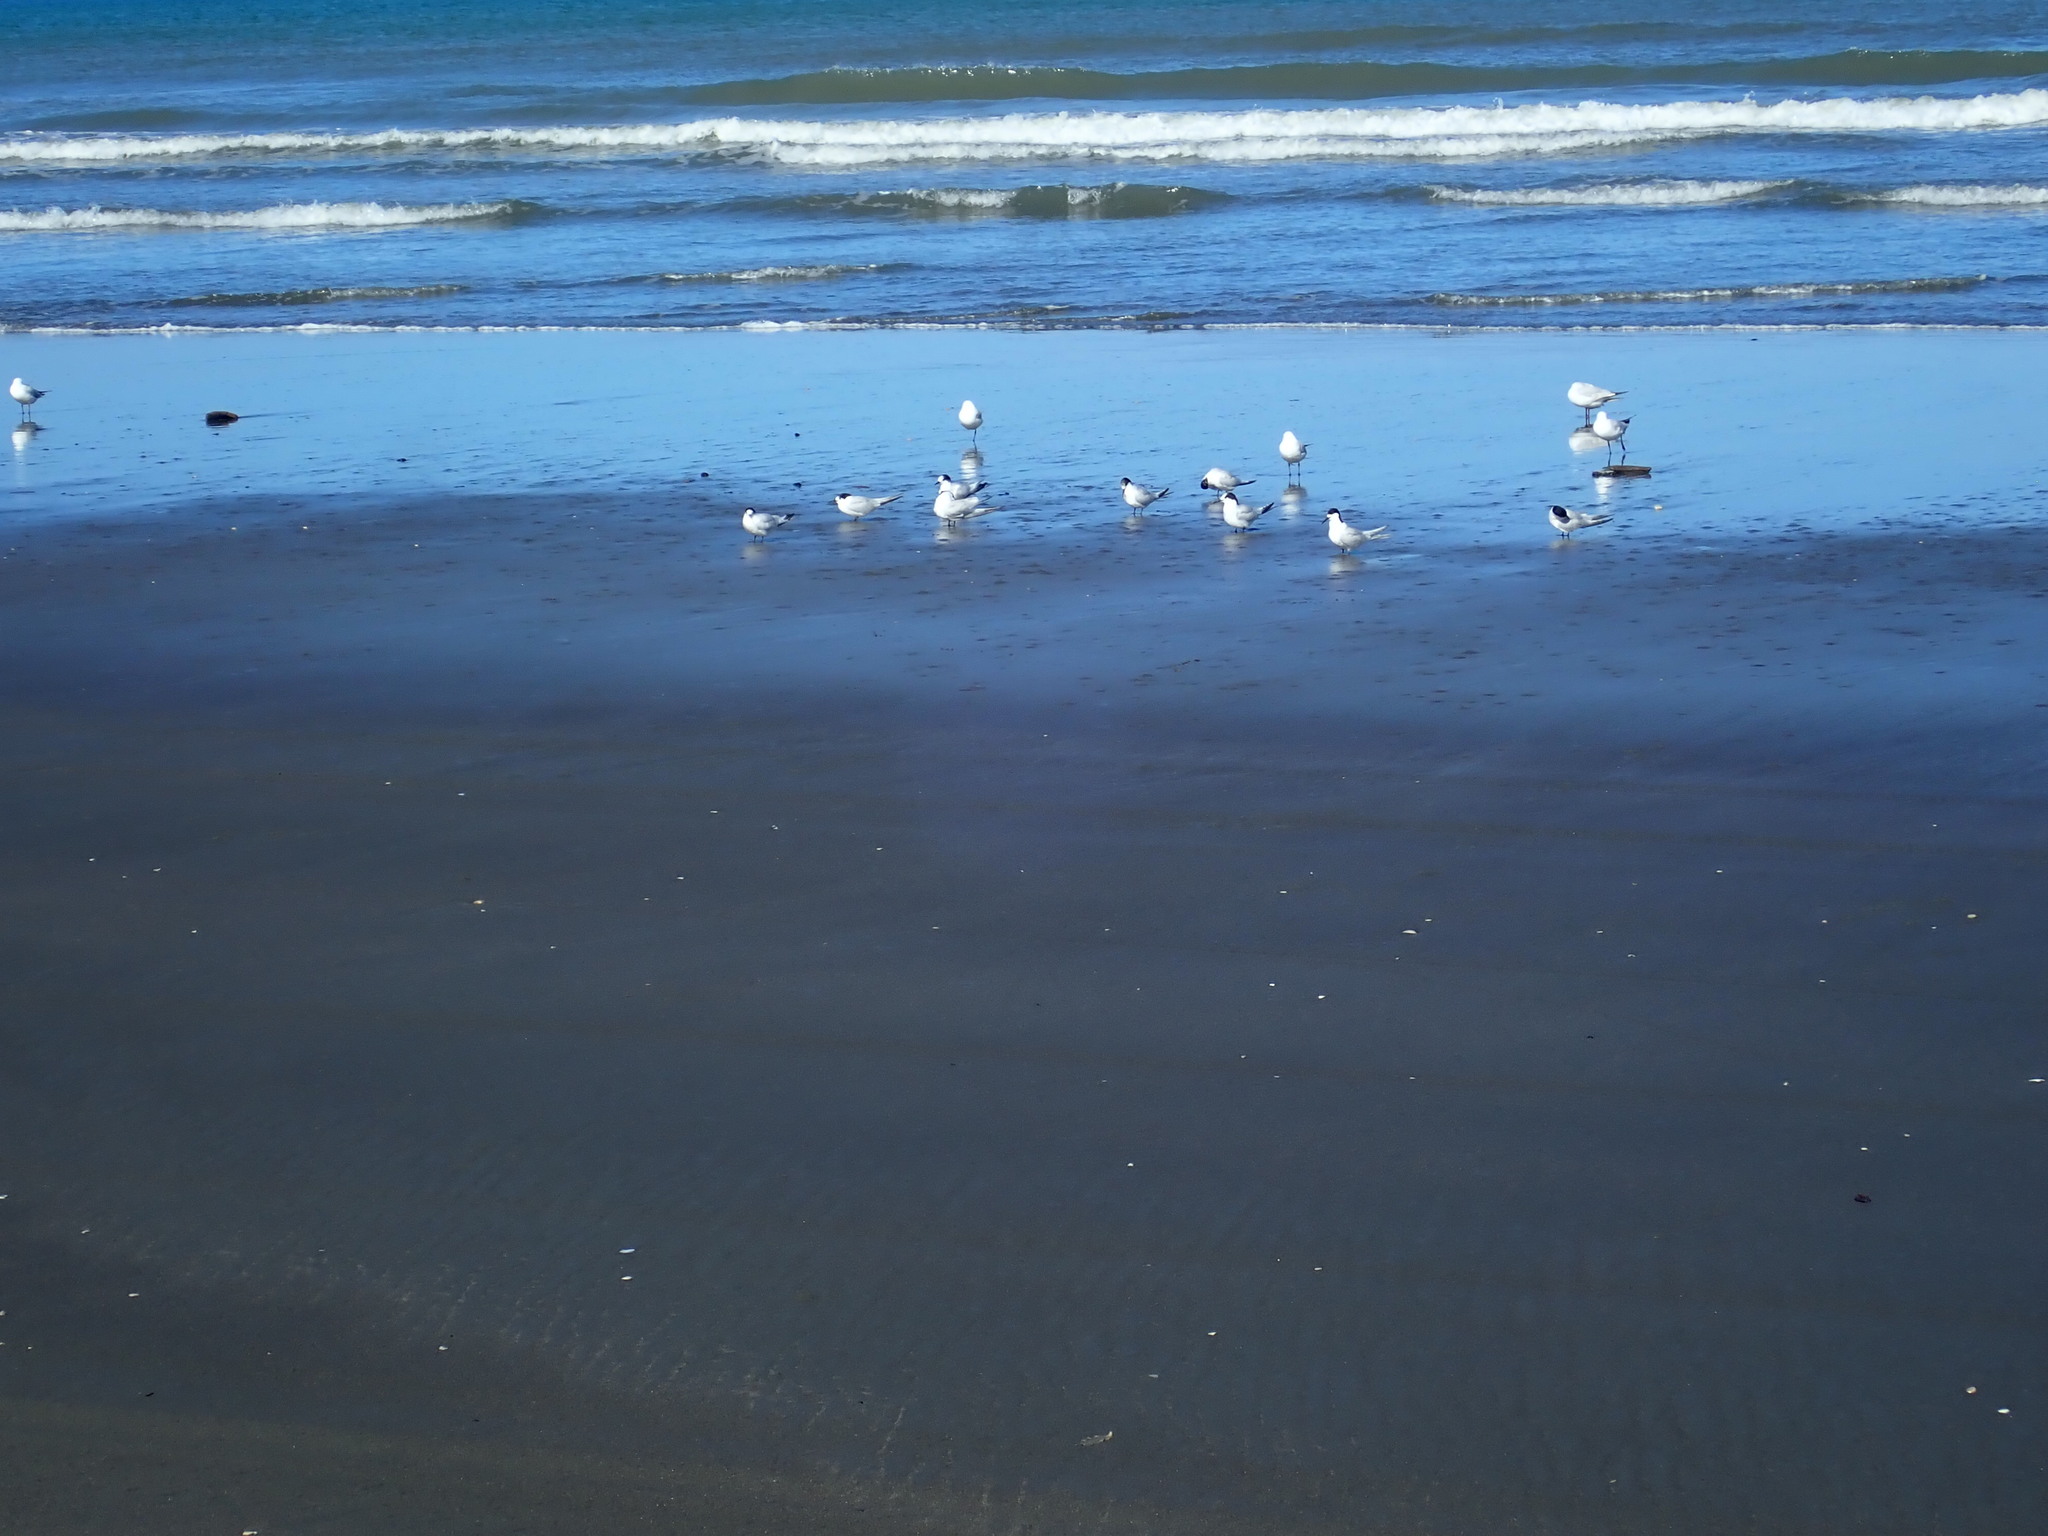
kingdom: Animalia
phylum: Chordata
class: Aves
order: Charadriiformes
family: Laridae
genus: Sterna
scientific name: Sterna striata
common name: White-fronted tern
